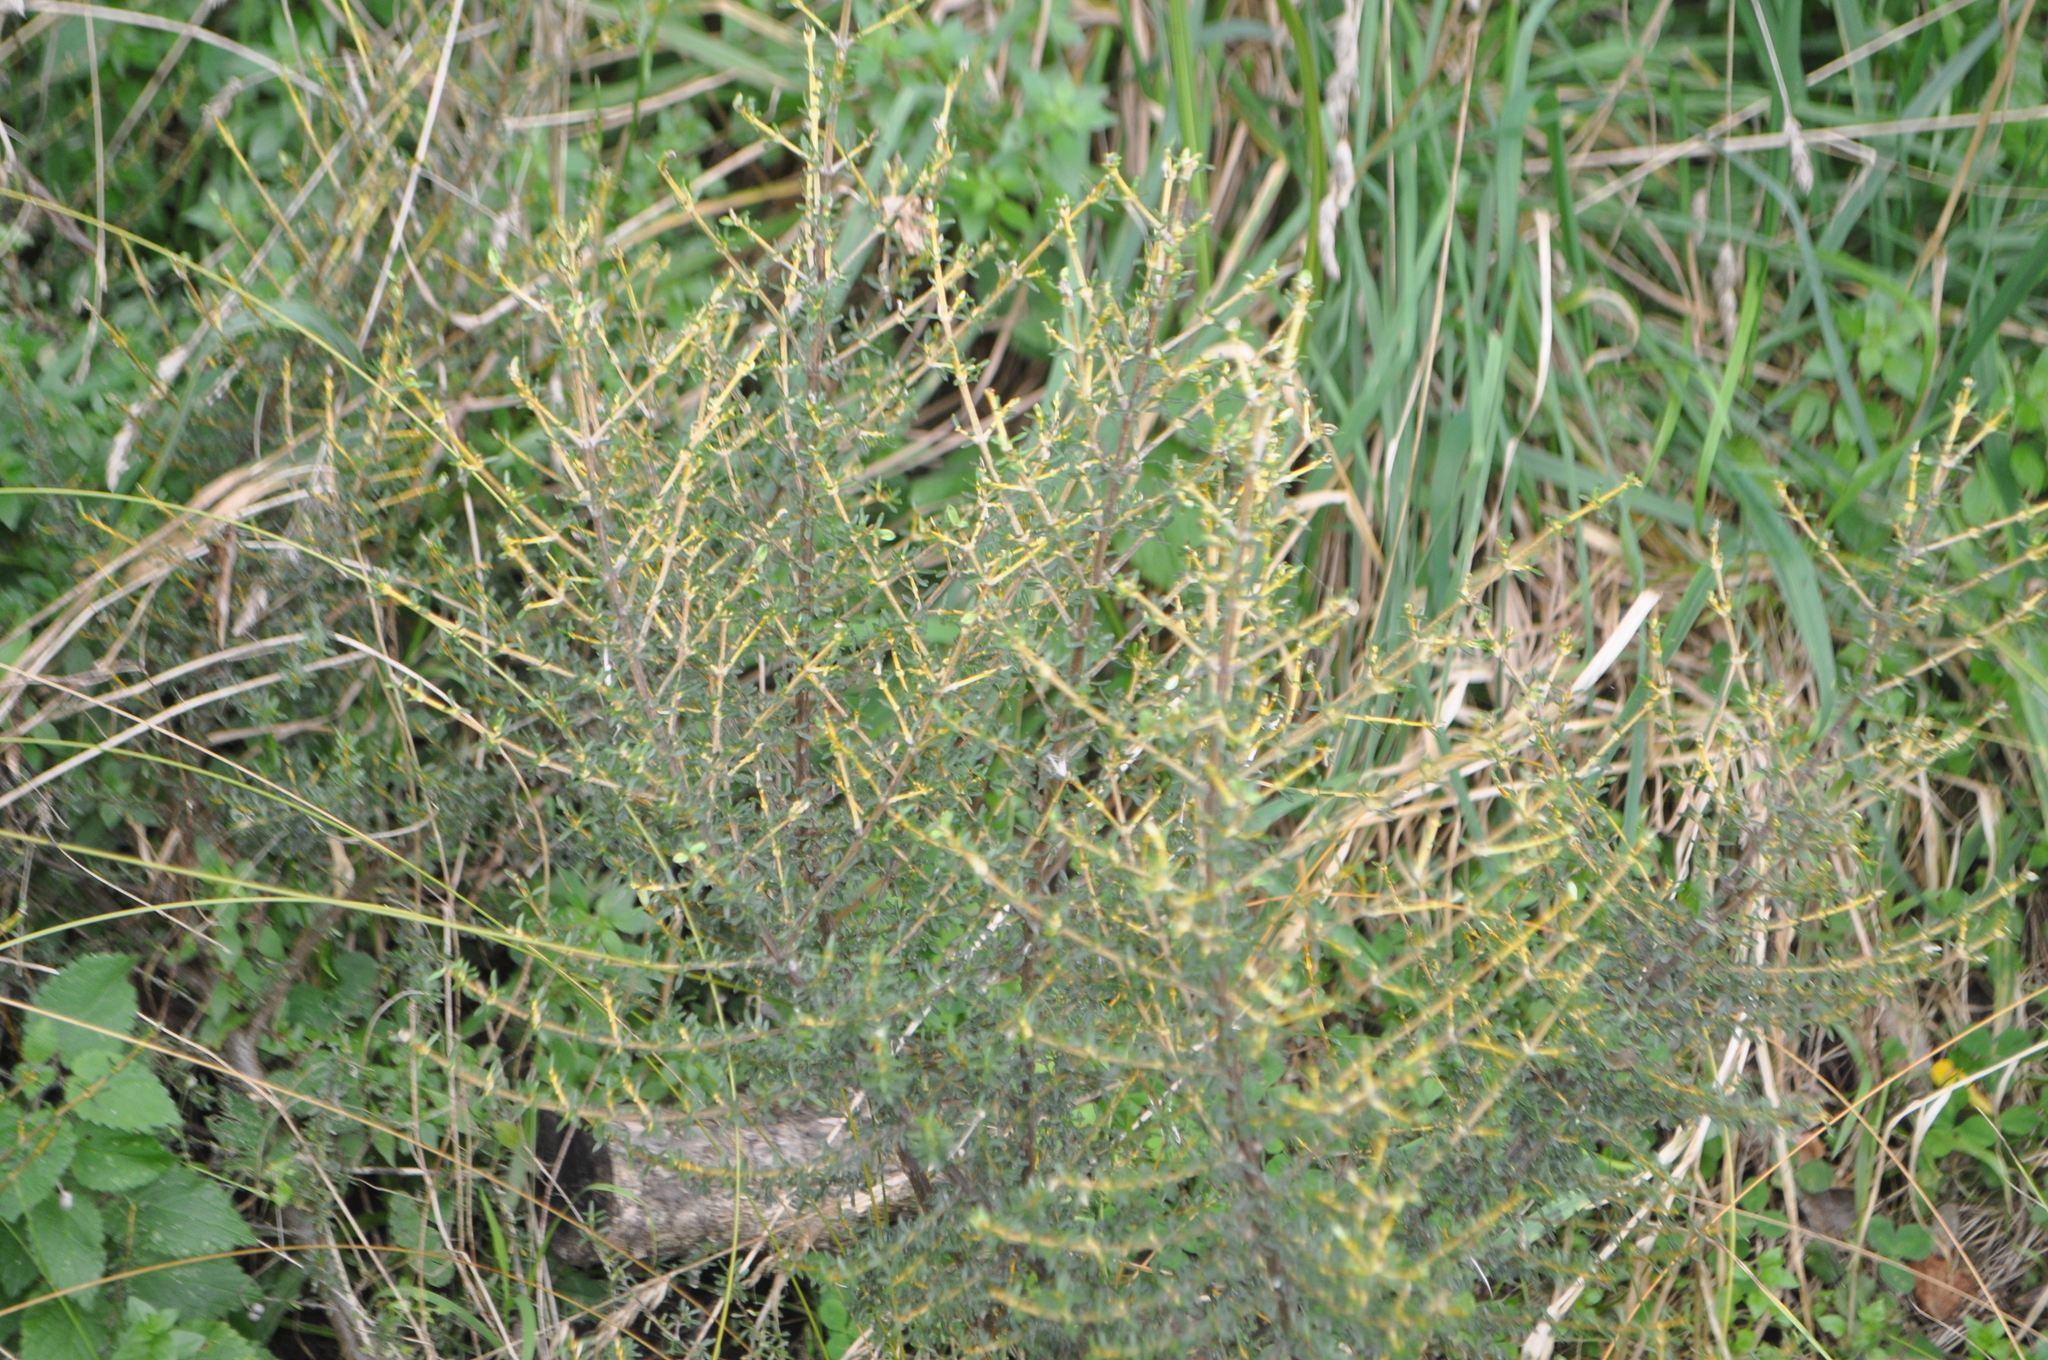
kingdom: Plantae
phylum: Tracheophyta
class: Magnoliopsida
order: Asterales
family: Asteraceae
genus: Olearia
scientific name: Olearia solandri
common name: Coastal daisybush
